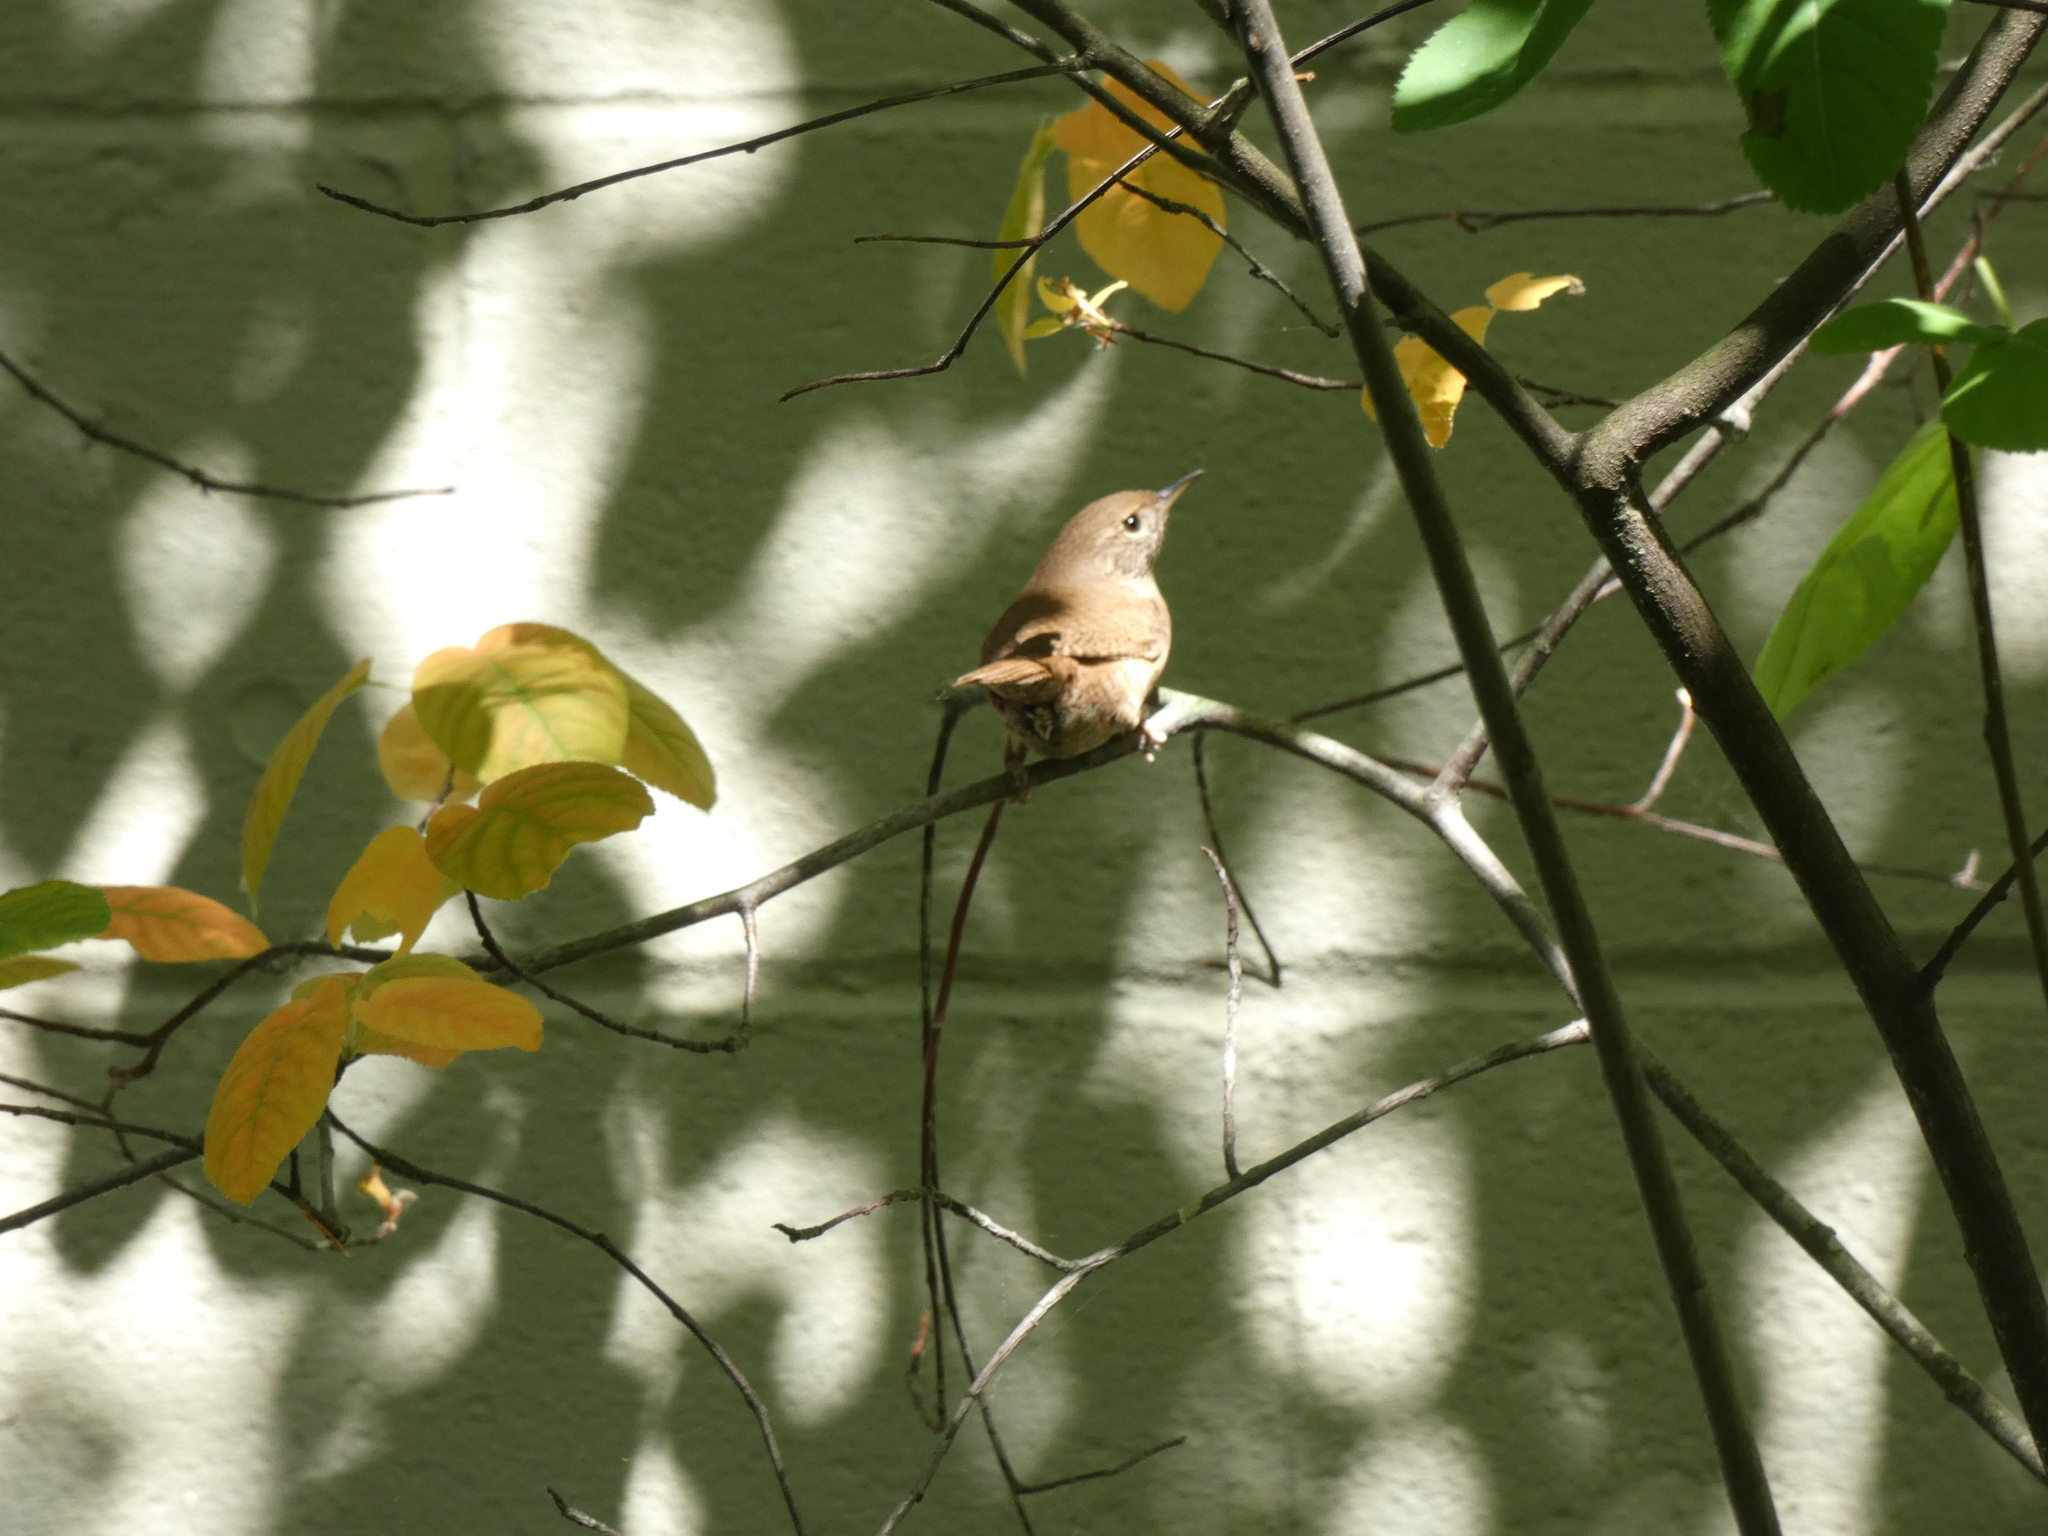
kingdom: Animalia
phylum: Chordata
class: Aves
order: Passeriformes
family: Troglodytidae
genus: Troglodytes
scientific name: Troglodytes aedon
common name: House wren
